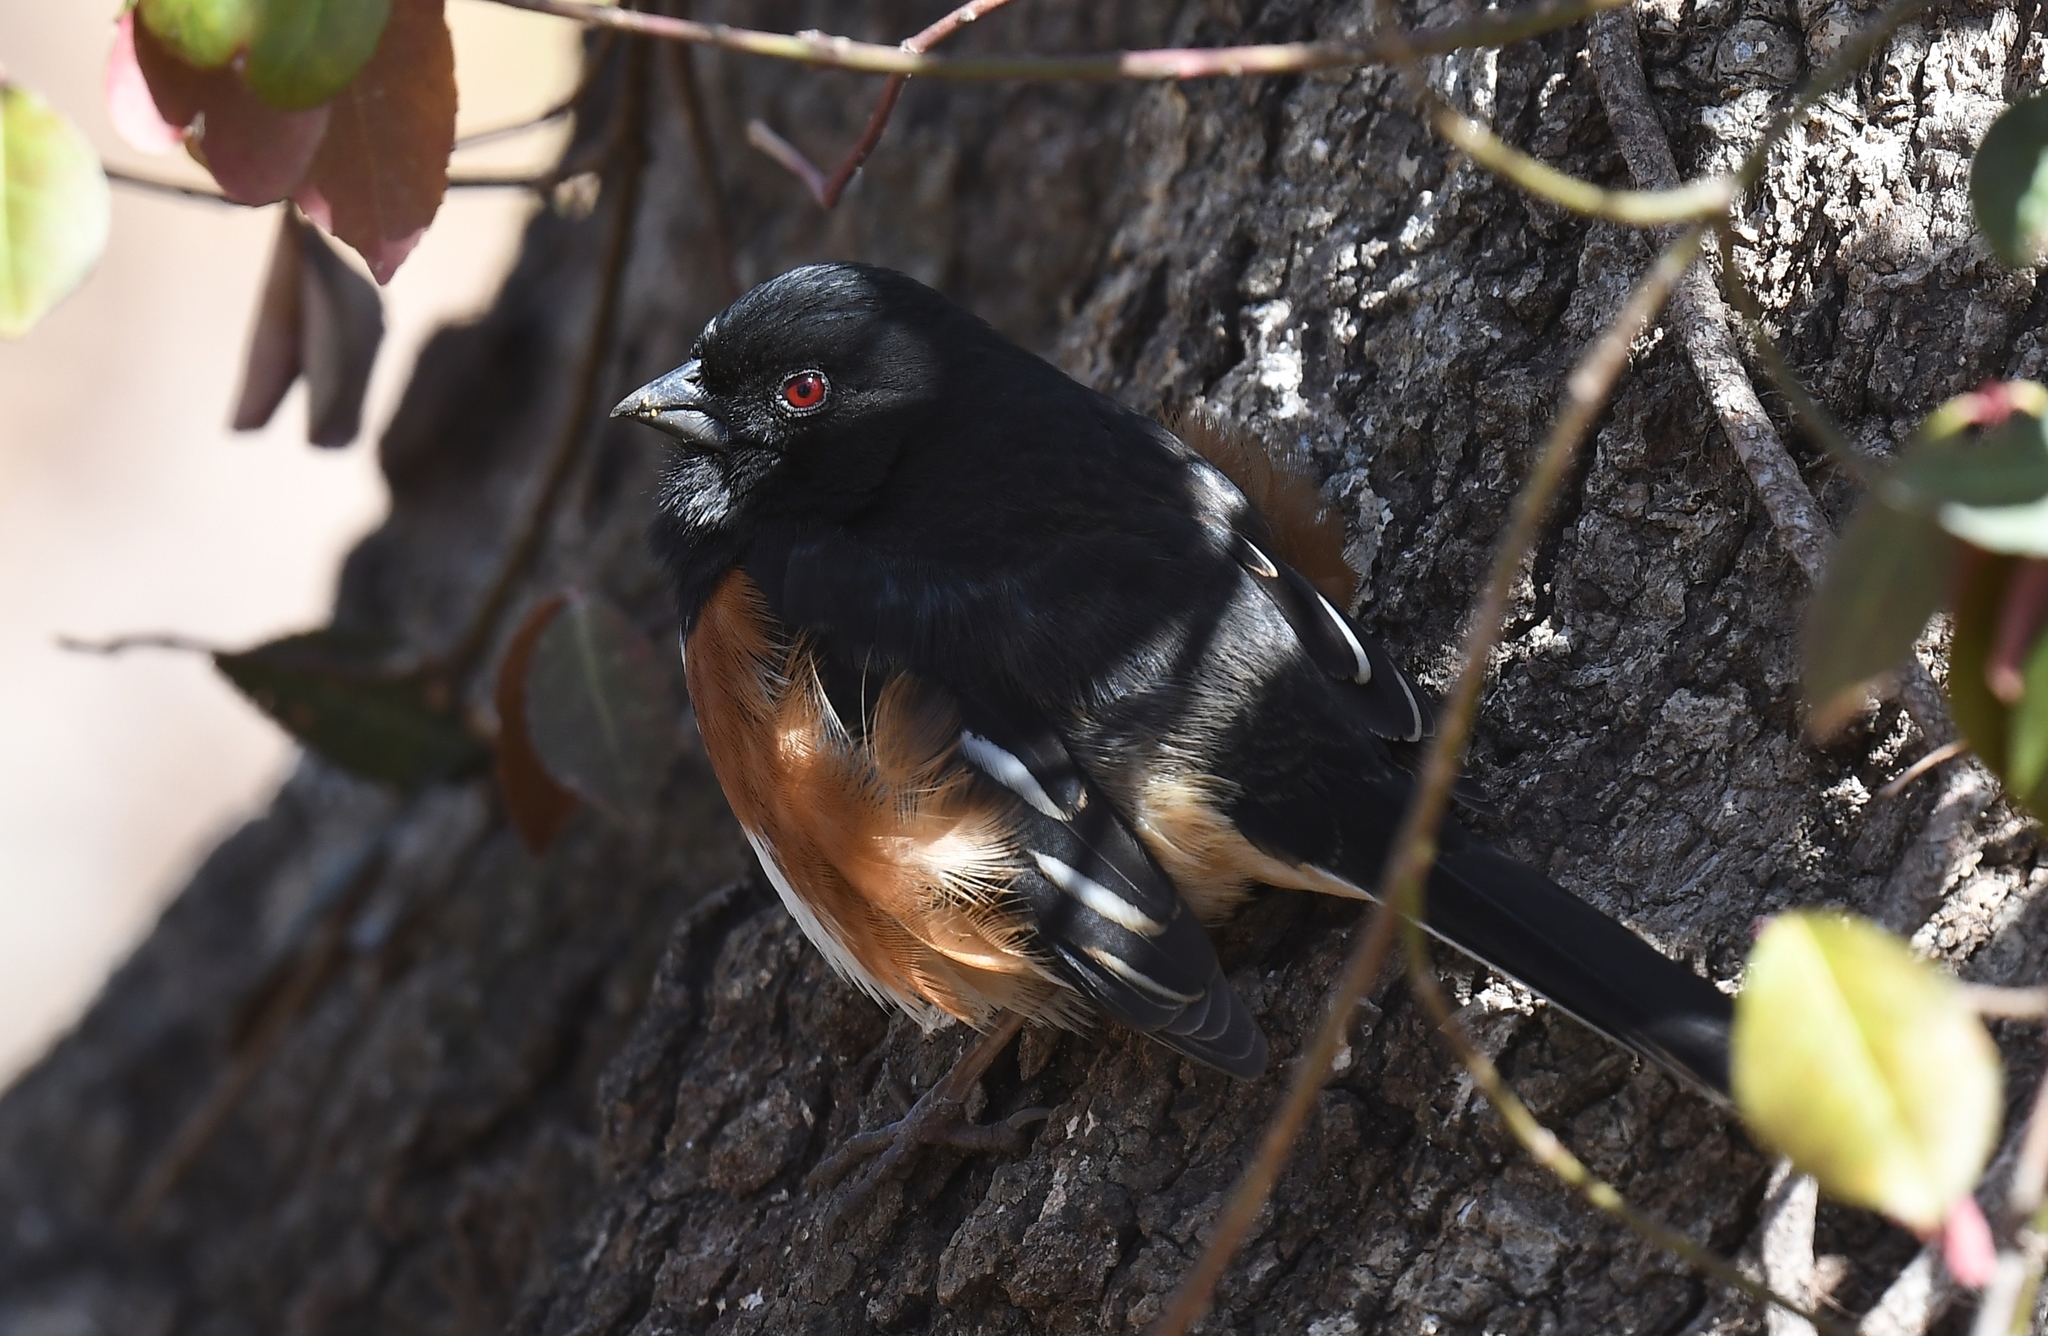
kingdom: Animalia
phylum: Chordata
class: Aves
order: Passeriformes
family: Passerellidae
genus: Pipilo
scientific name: Pipilo erythrophthalmus
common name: Eastern towhee
